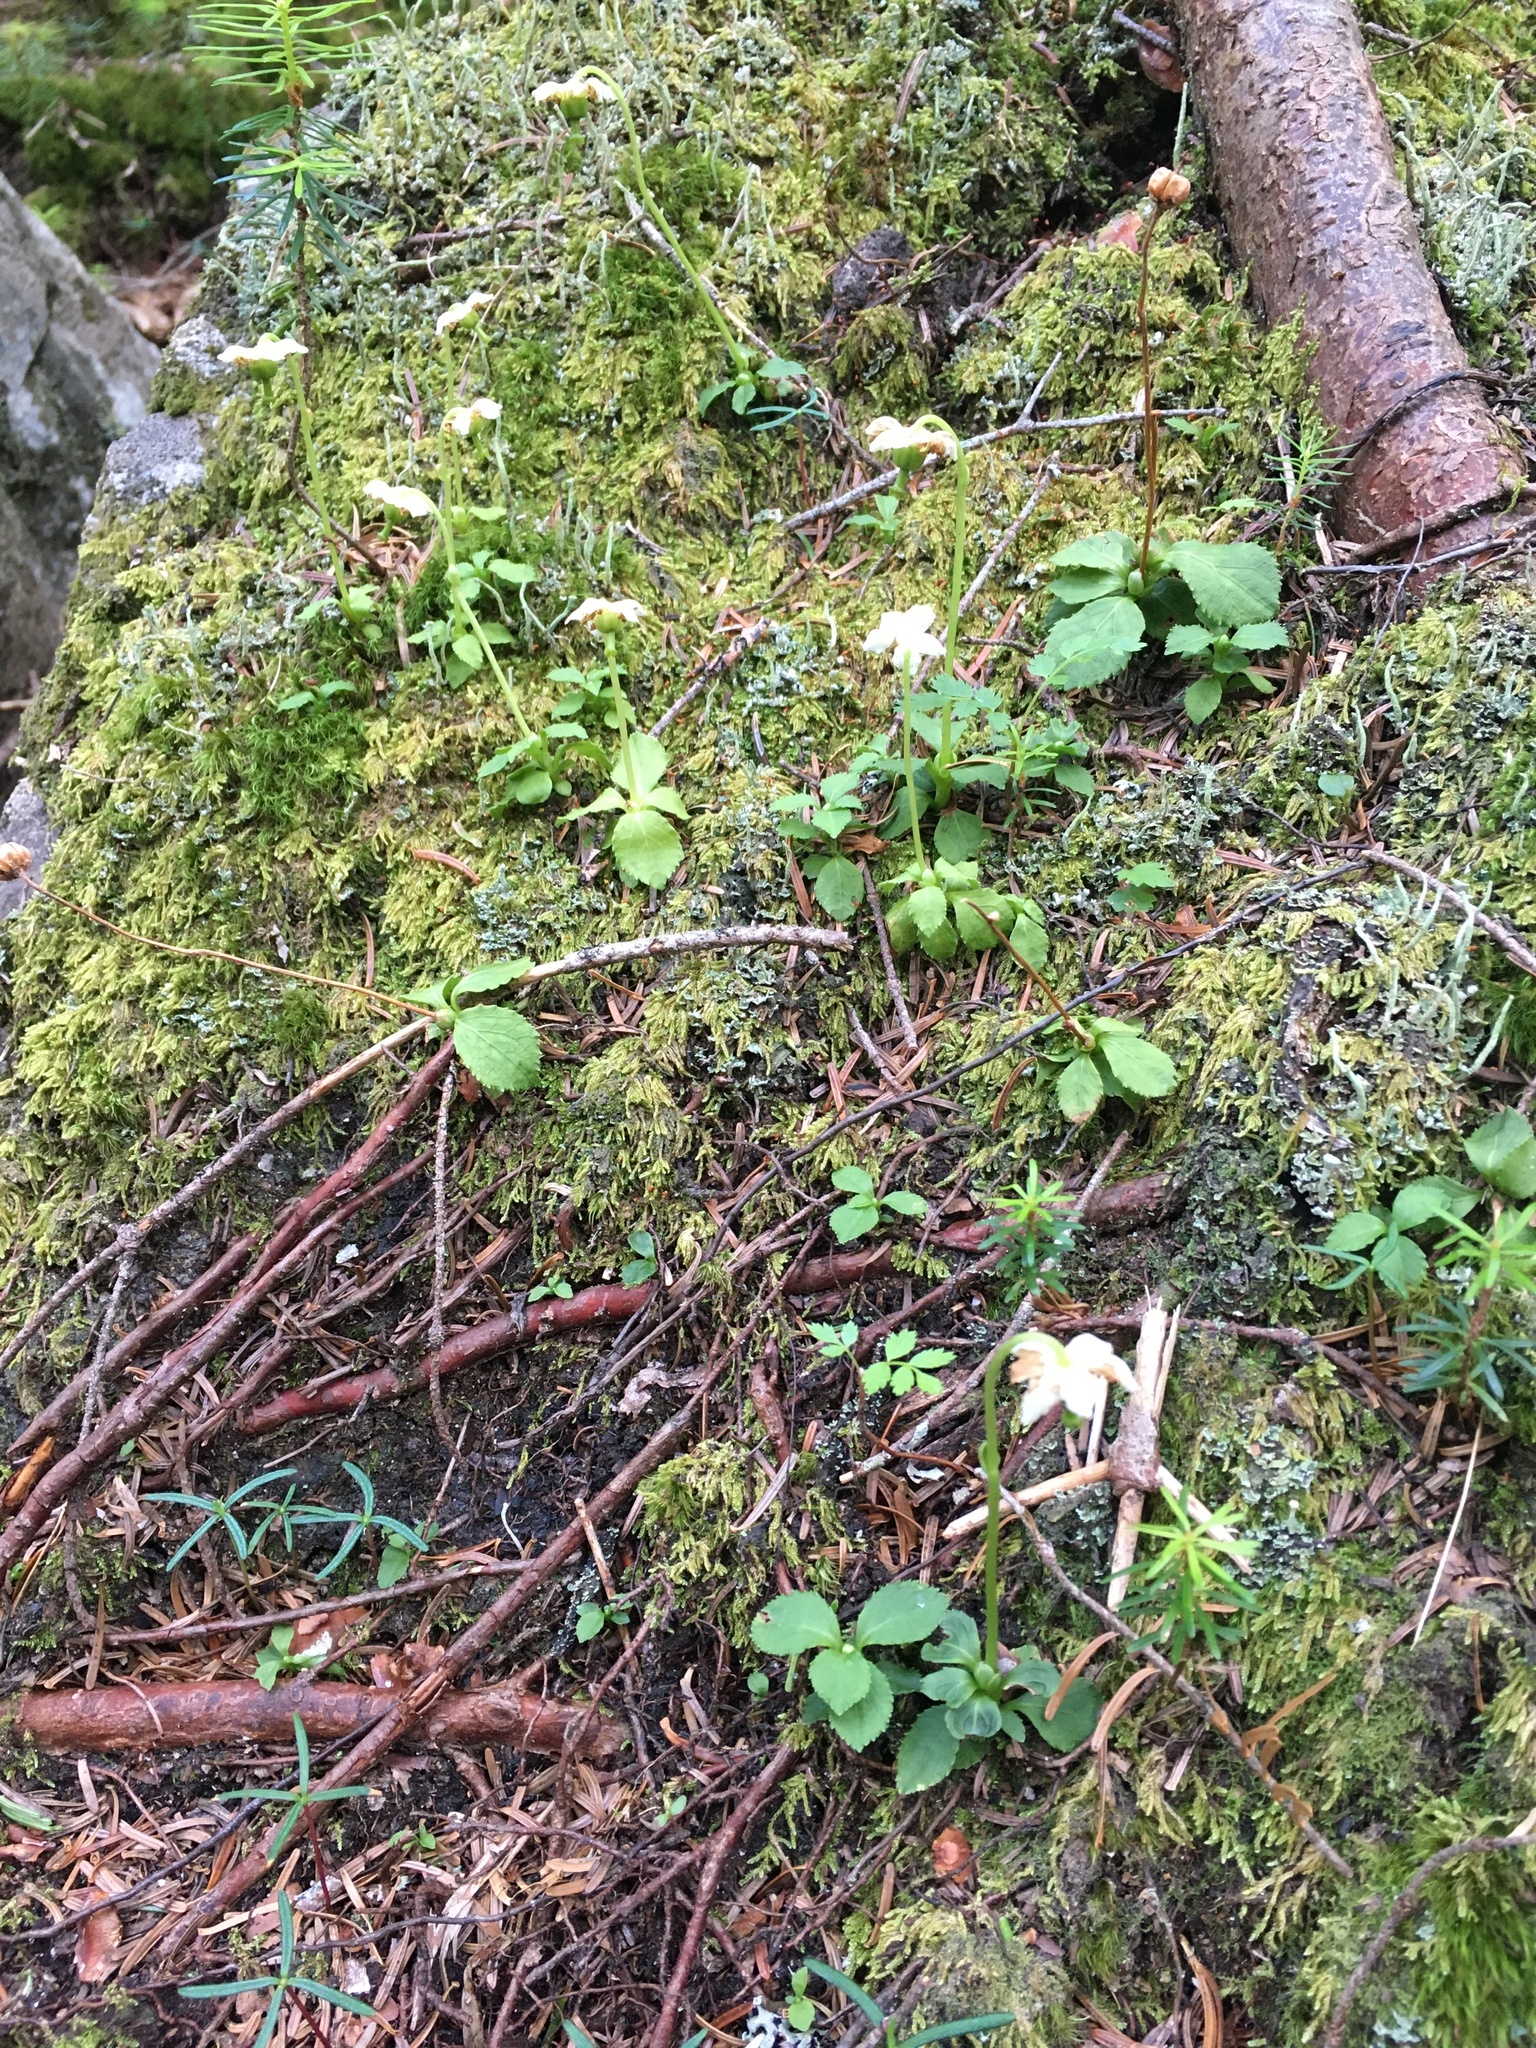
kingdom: Plantae
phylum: Tracheophyta
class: Magnoliopsida
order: Ericales
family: Ericaceae
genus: Moneses
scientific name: Moneses uniflora
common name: One-flowered wintergreen
